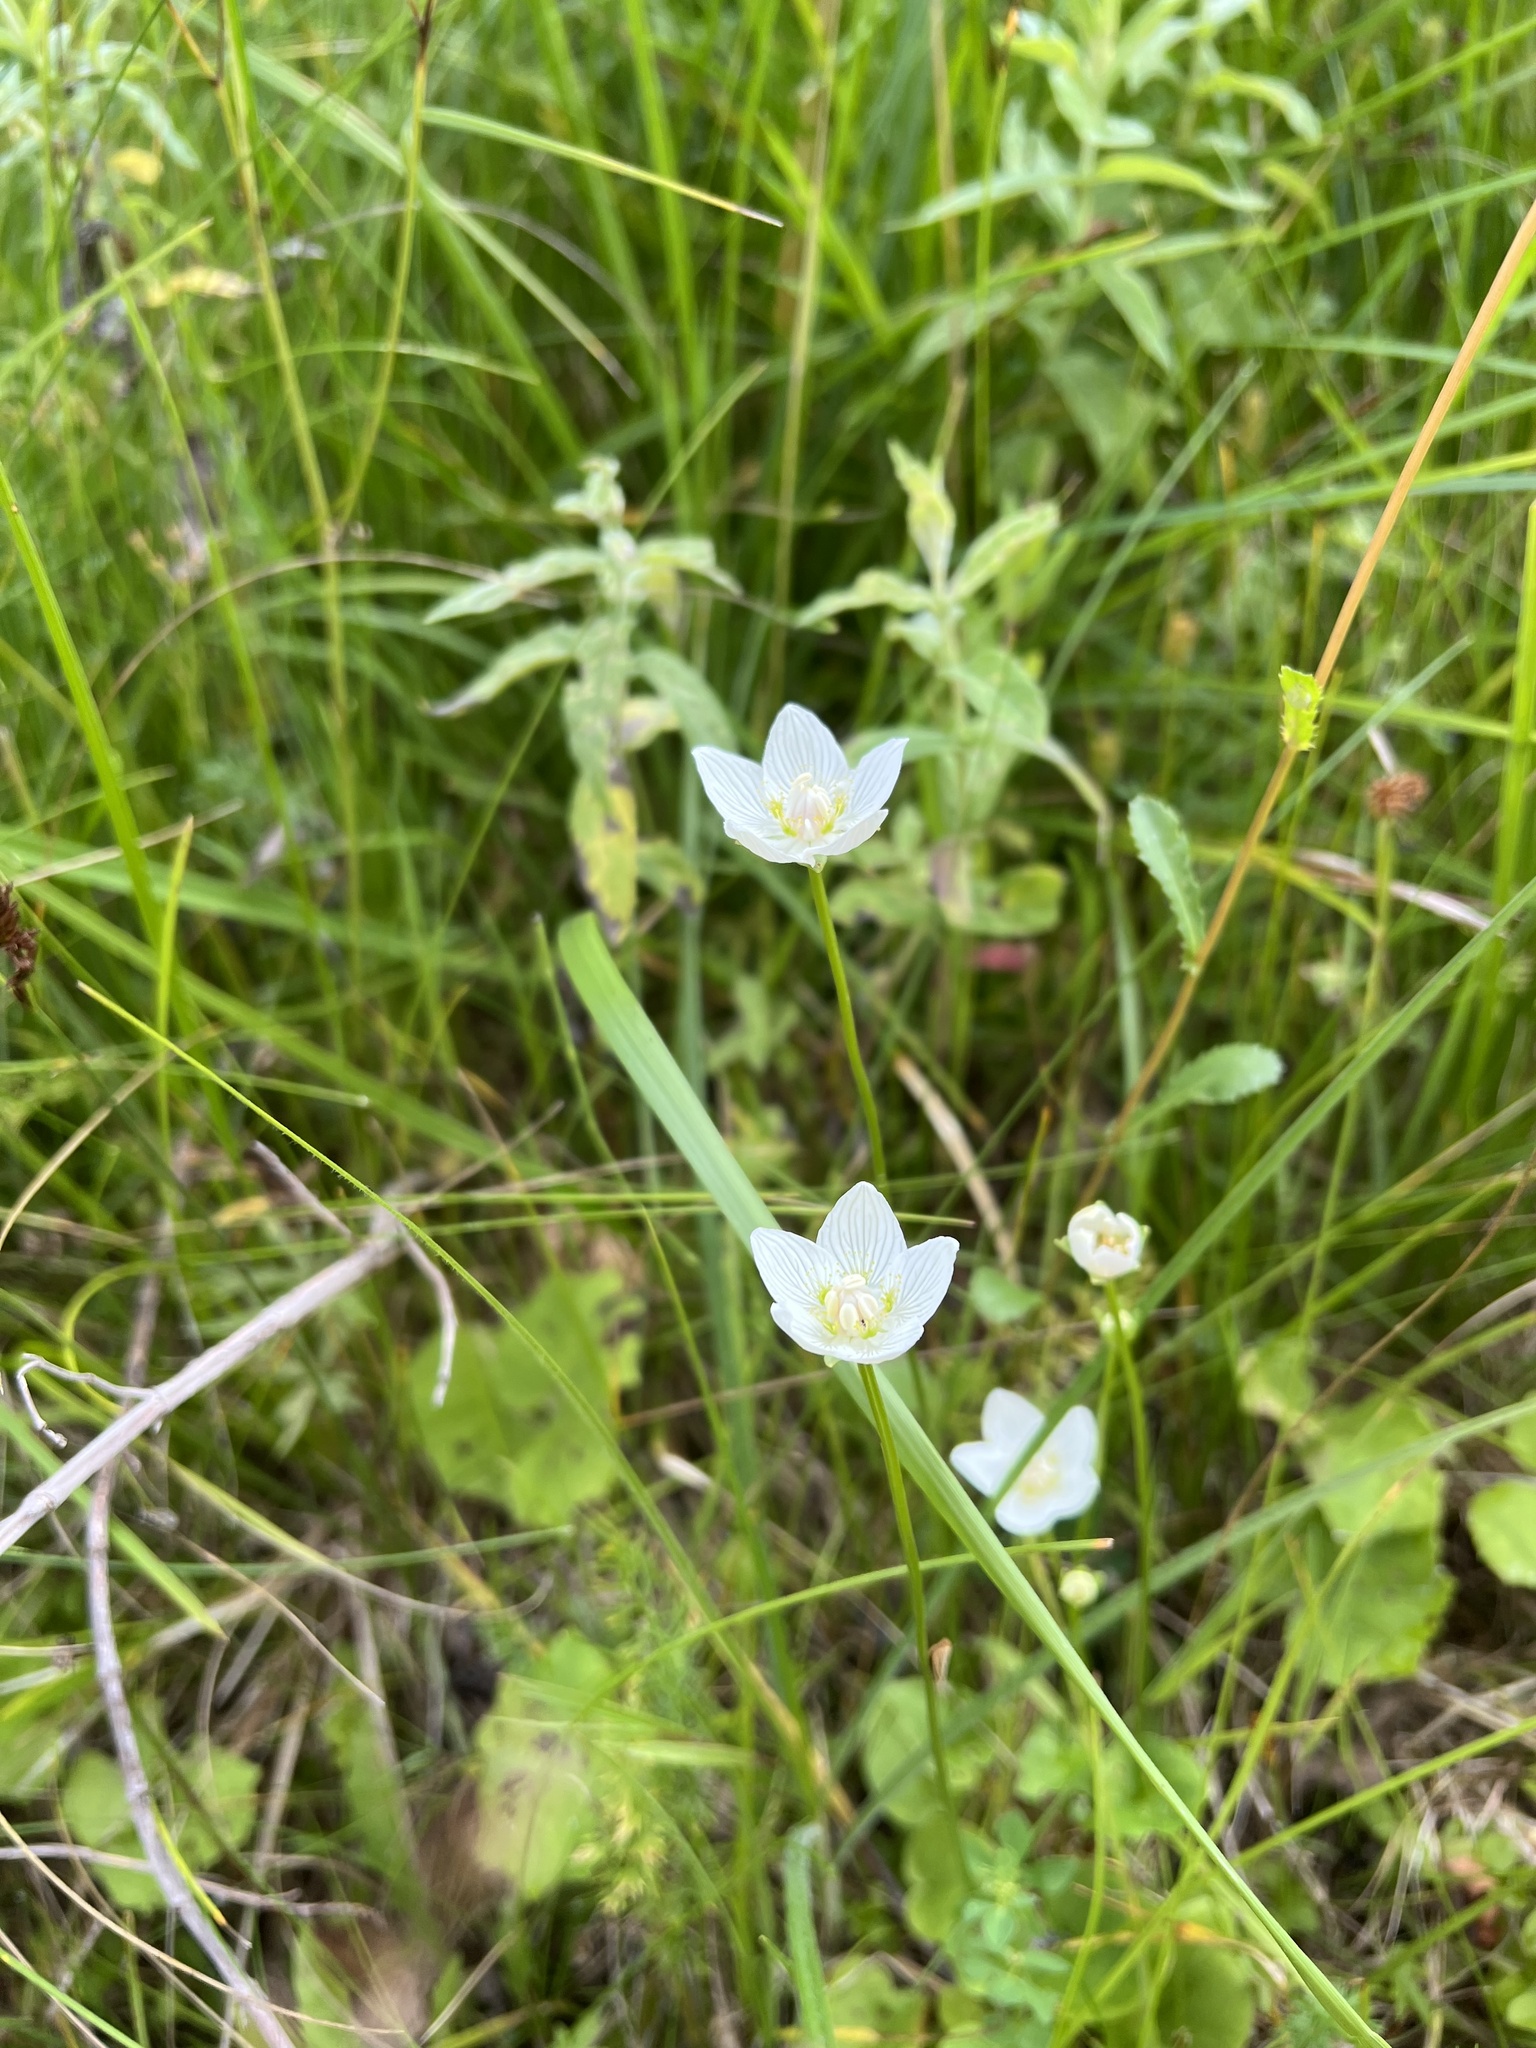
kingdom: Plantae
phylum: Tracheophyta
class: Magnoliopsida
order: Celastrales
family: Parnassiaceae
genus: Parnassia
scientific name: Parnassia palustris
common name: Grass-of-parnassus
